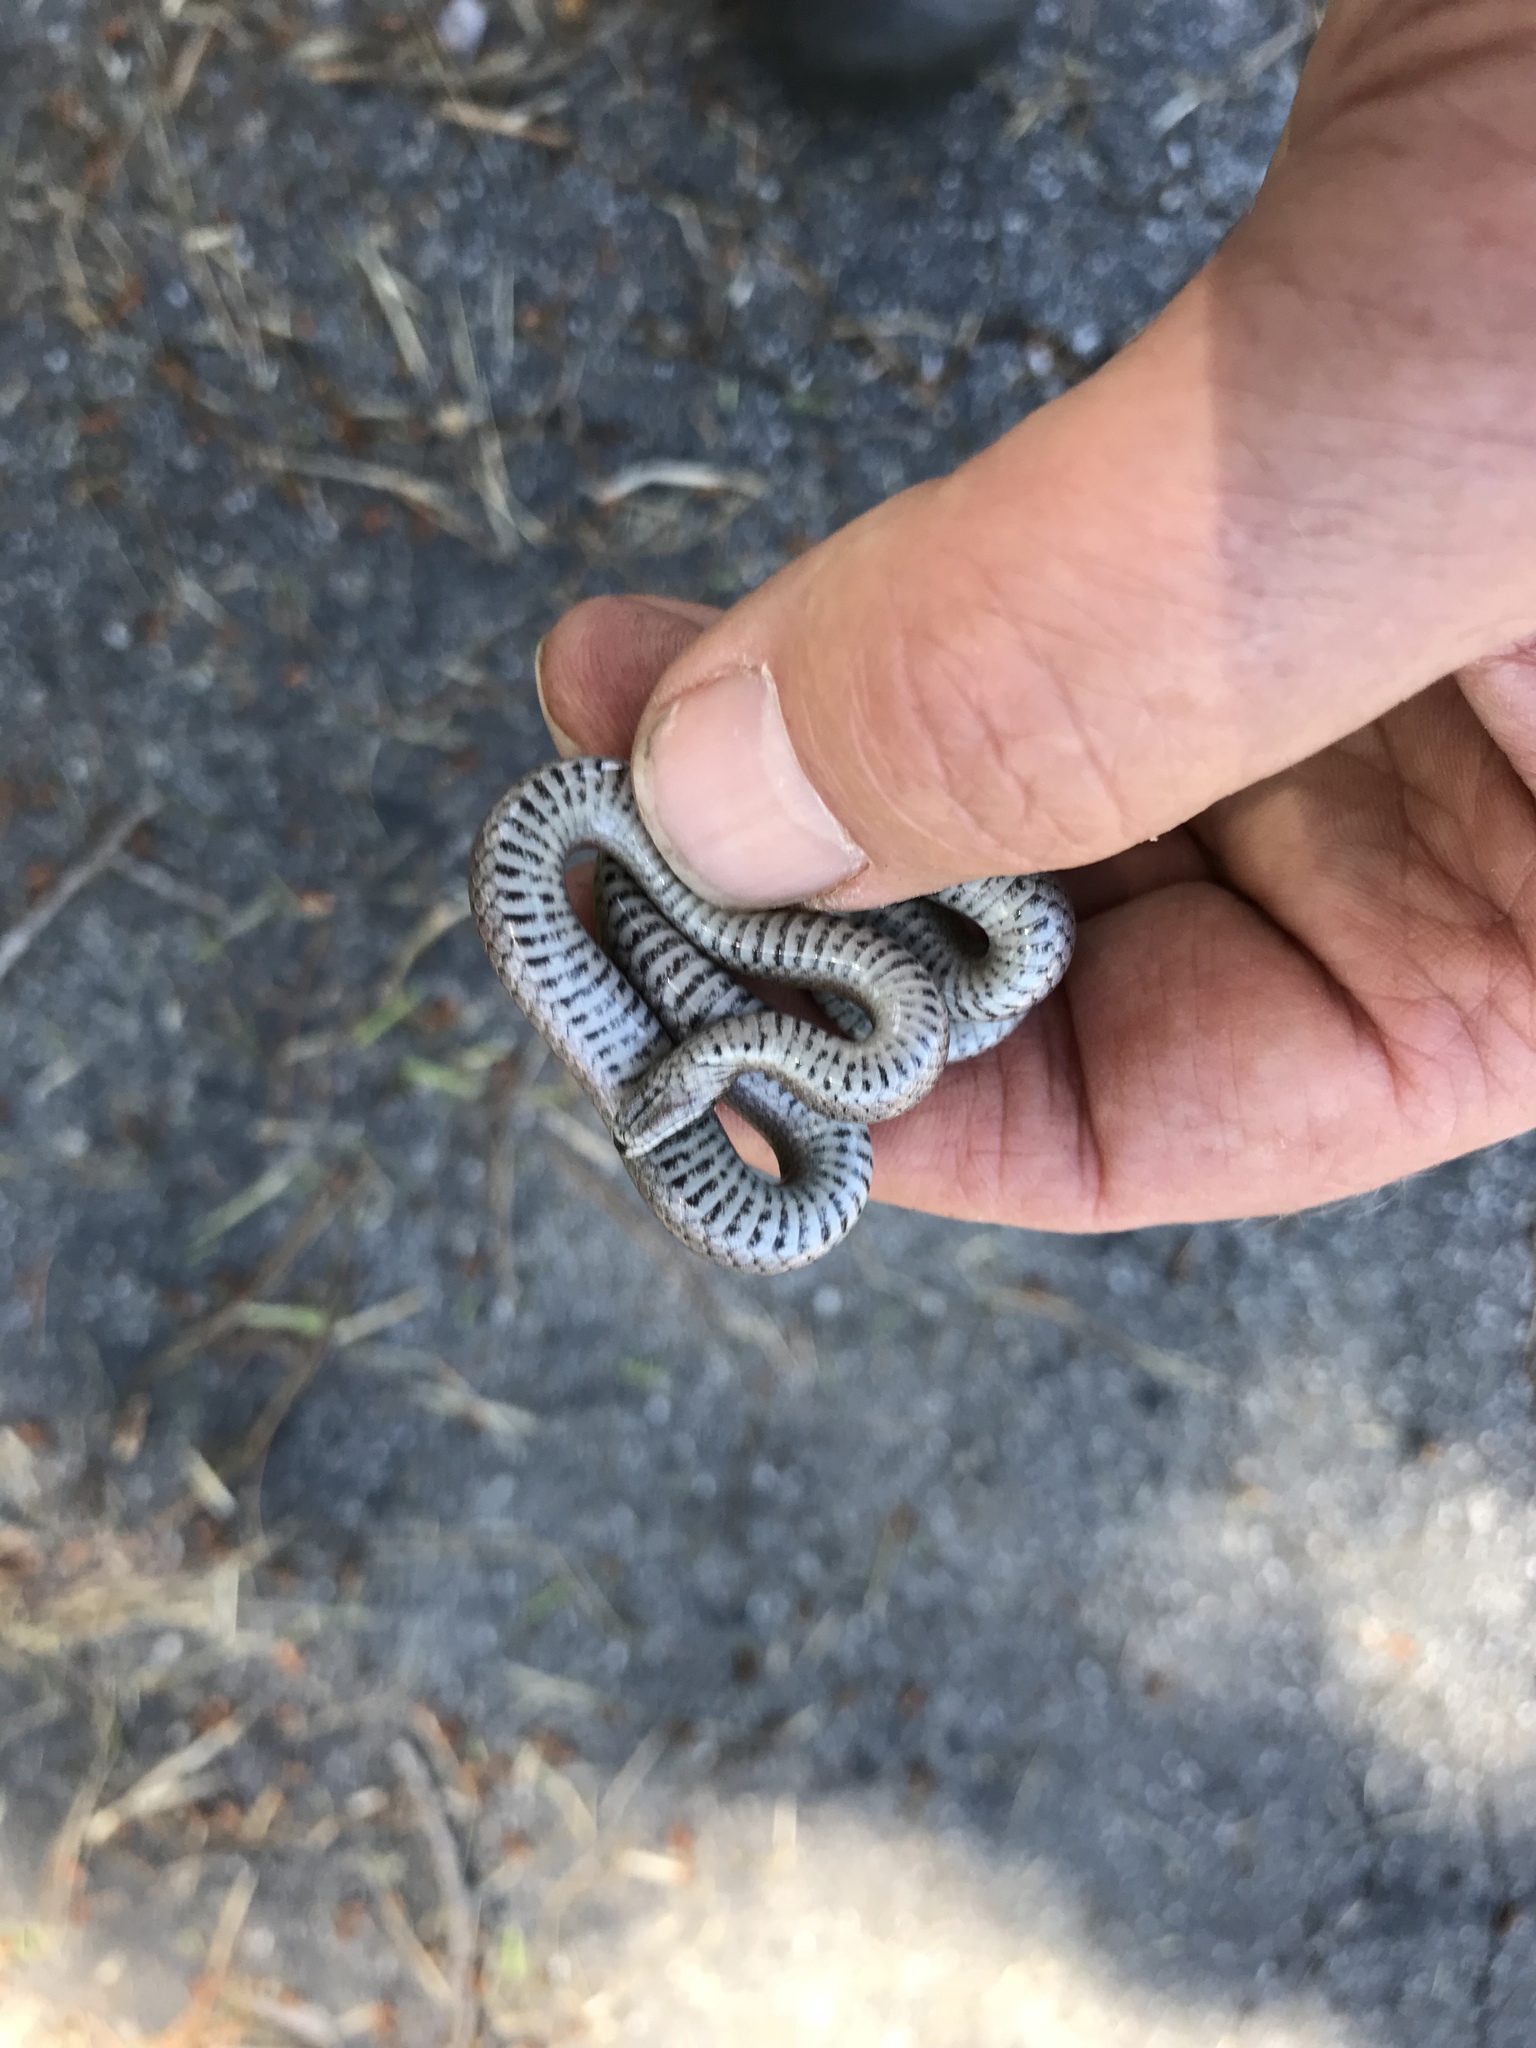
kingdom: Animalia
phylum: Chordata
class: Squamata
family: Colubridae
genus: Contia
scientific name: Contia tenuis
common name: Sharptail snake
